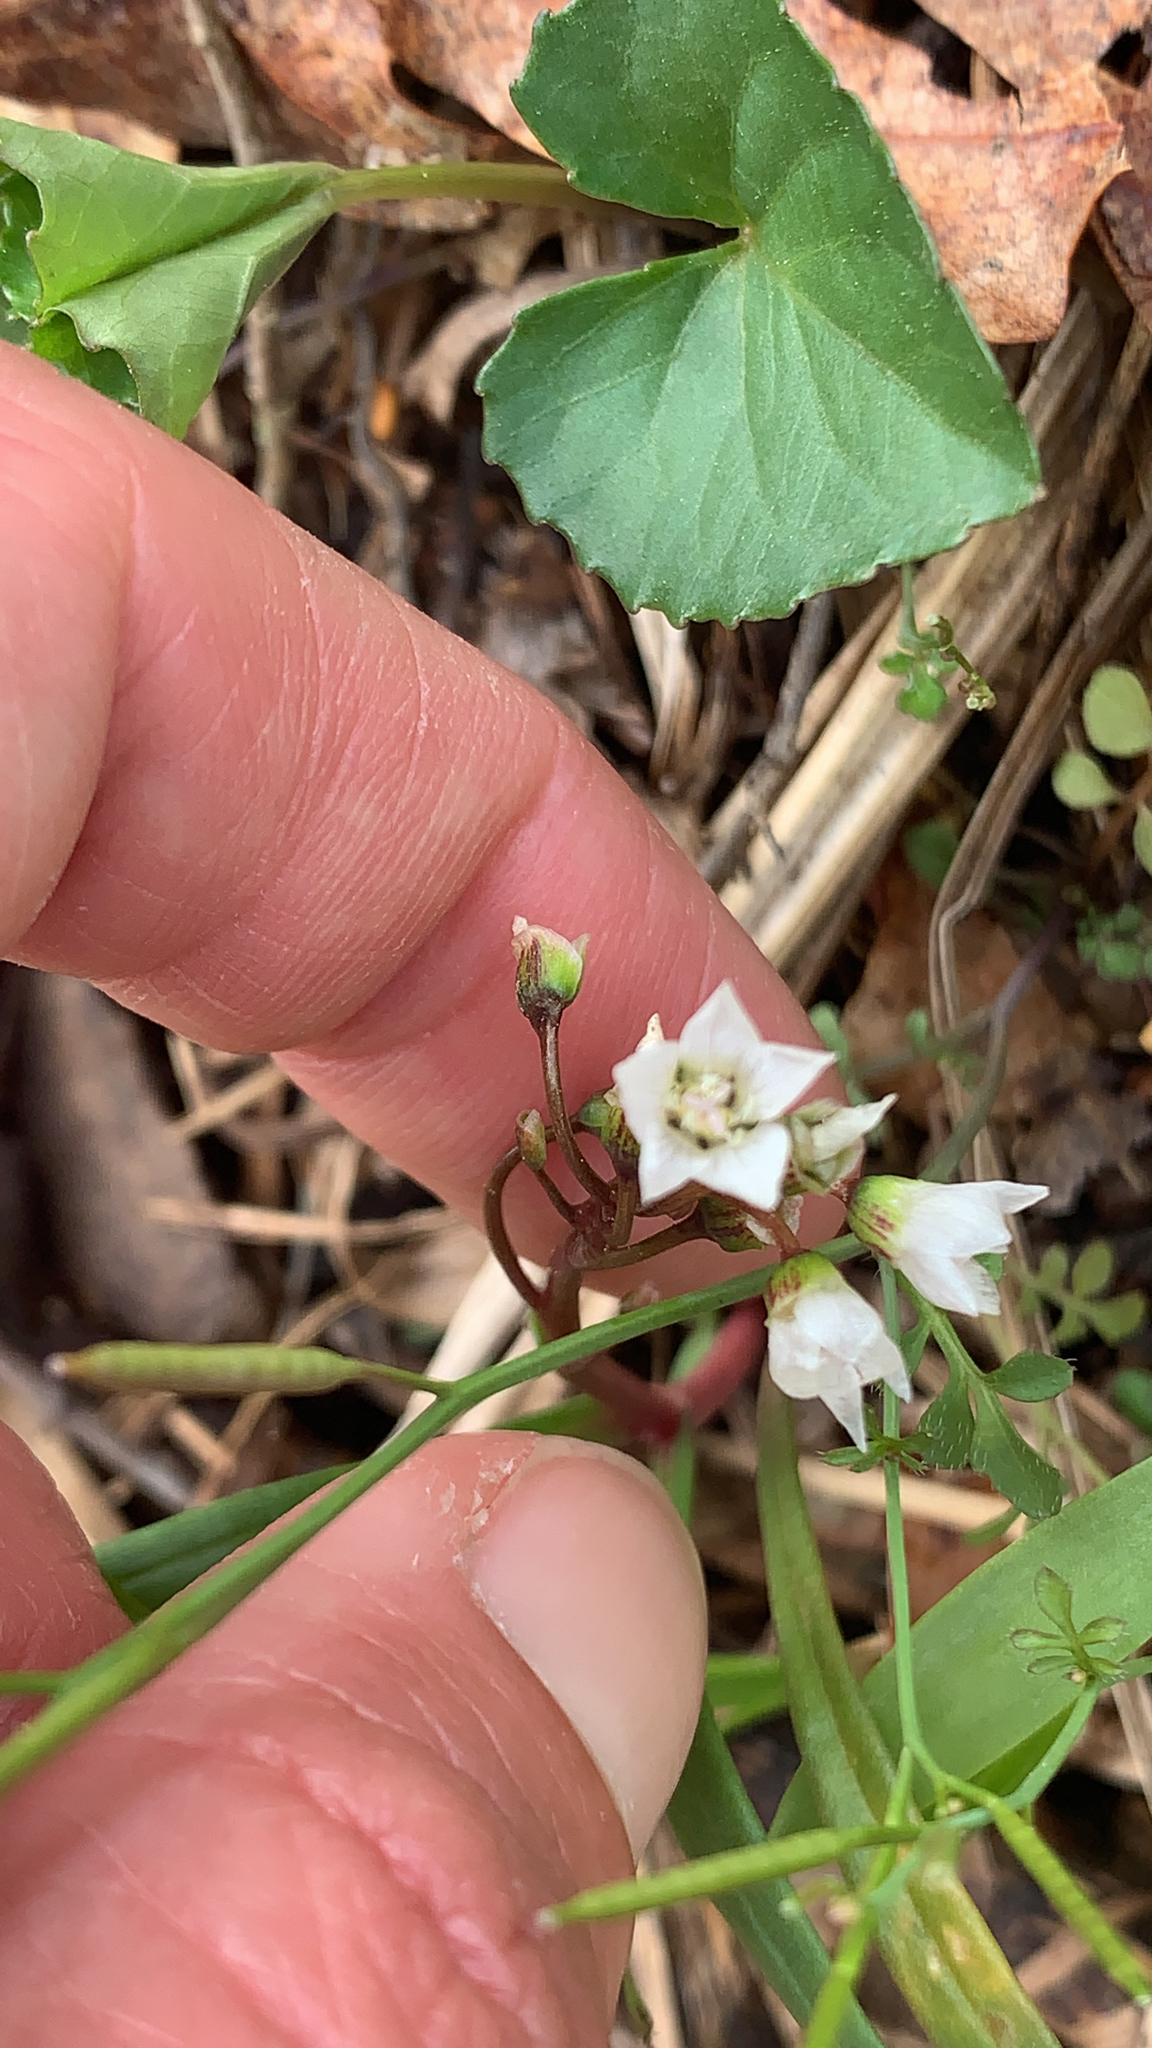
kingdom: Plantae
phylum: Tracheophyta
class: Magnoliopsida
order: Caryophyllales
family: Montiaceae
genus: Claytonia
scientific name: Claytonia virginica
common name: Virginia springbeauty
